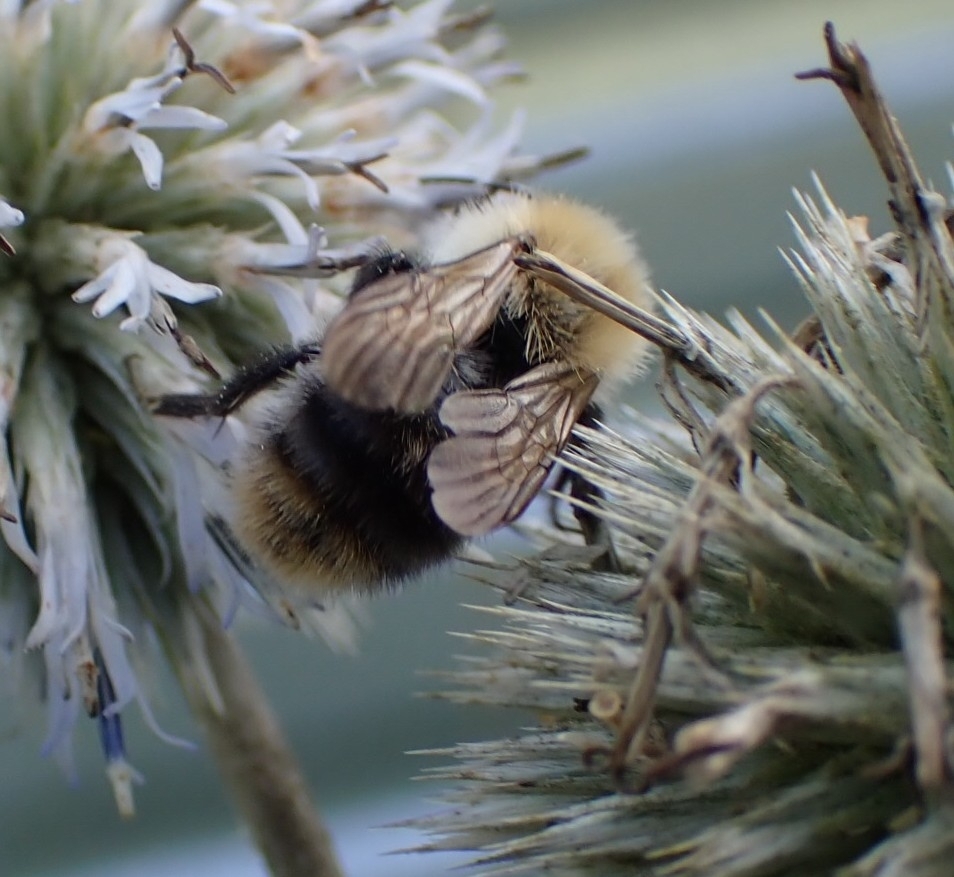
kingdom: Animalia
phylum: Arthropoda
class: Insecta
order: Hymenoptera
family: Apidae
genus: Bombus
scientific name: Bombus pascuorum
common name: Common carder bee
